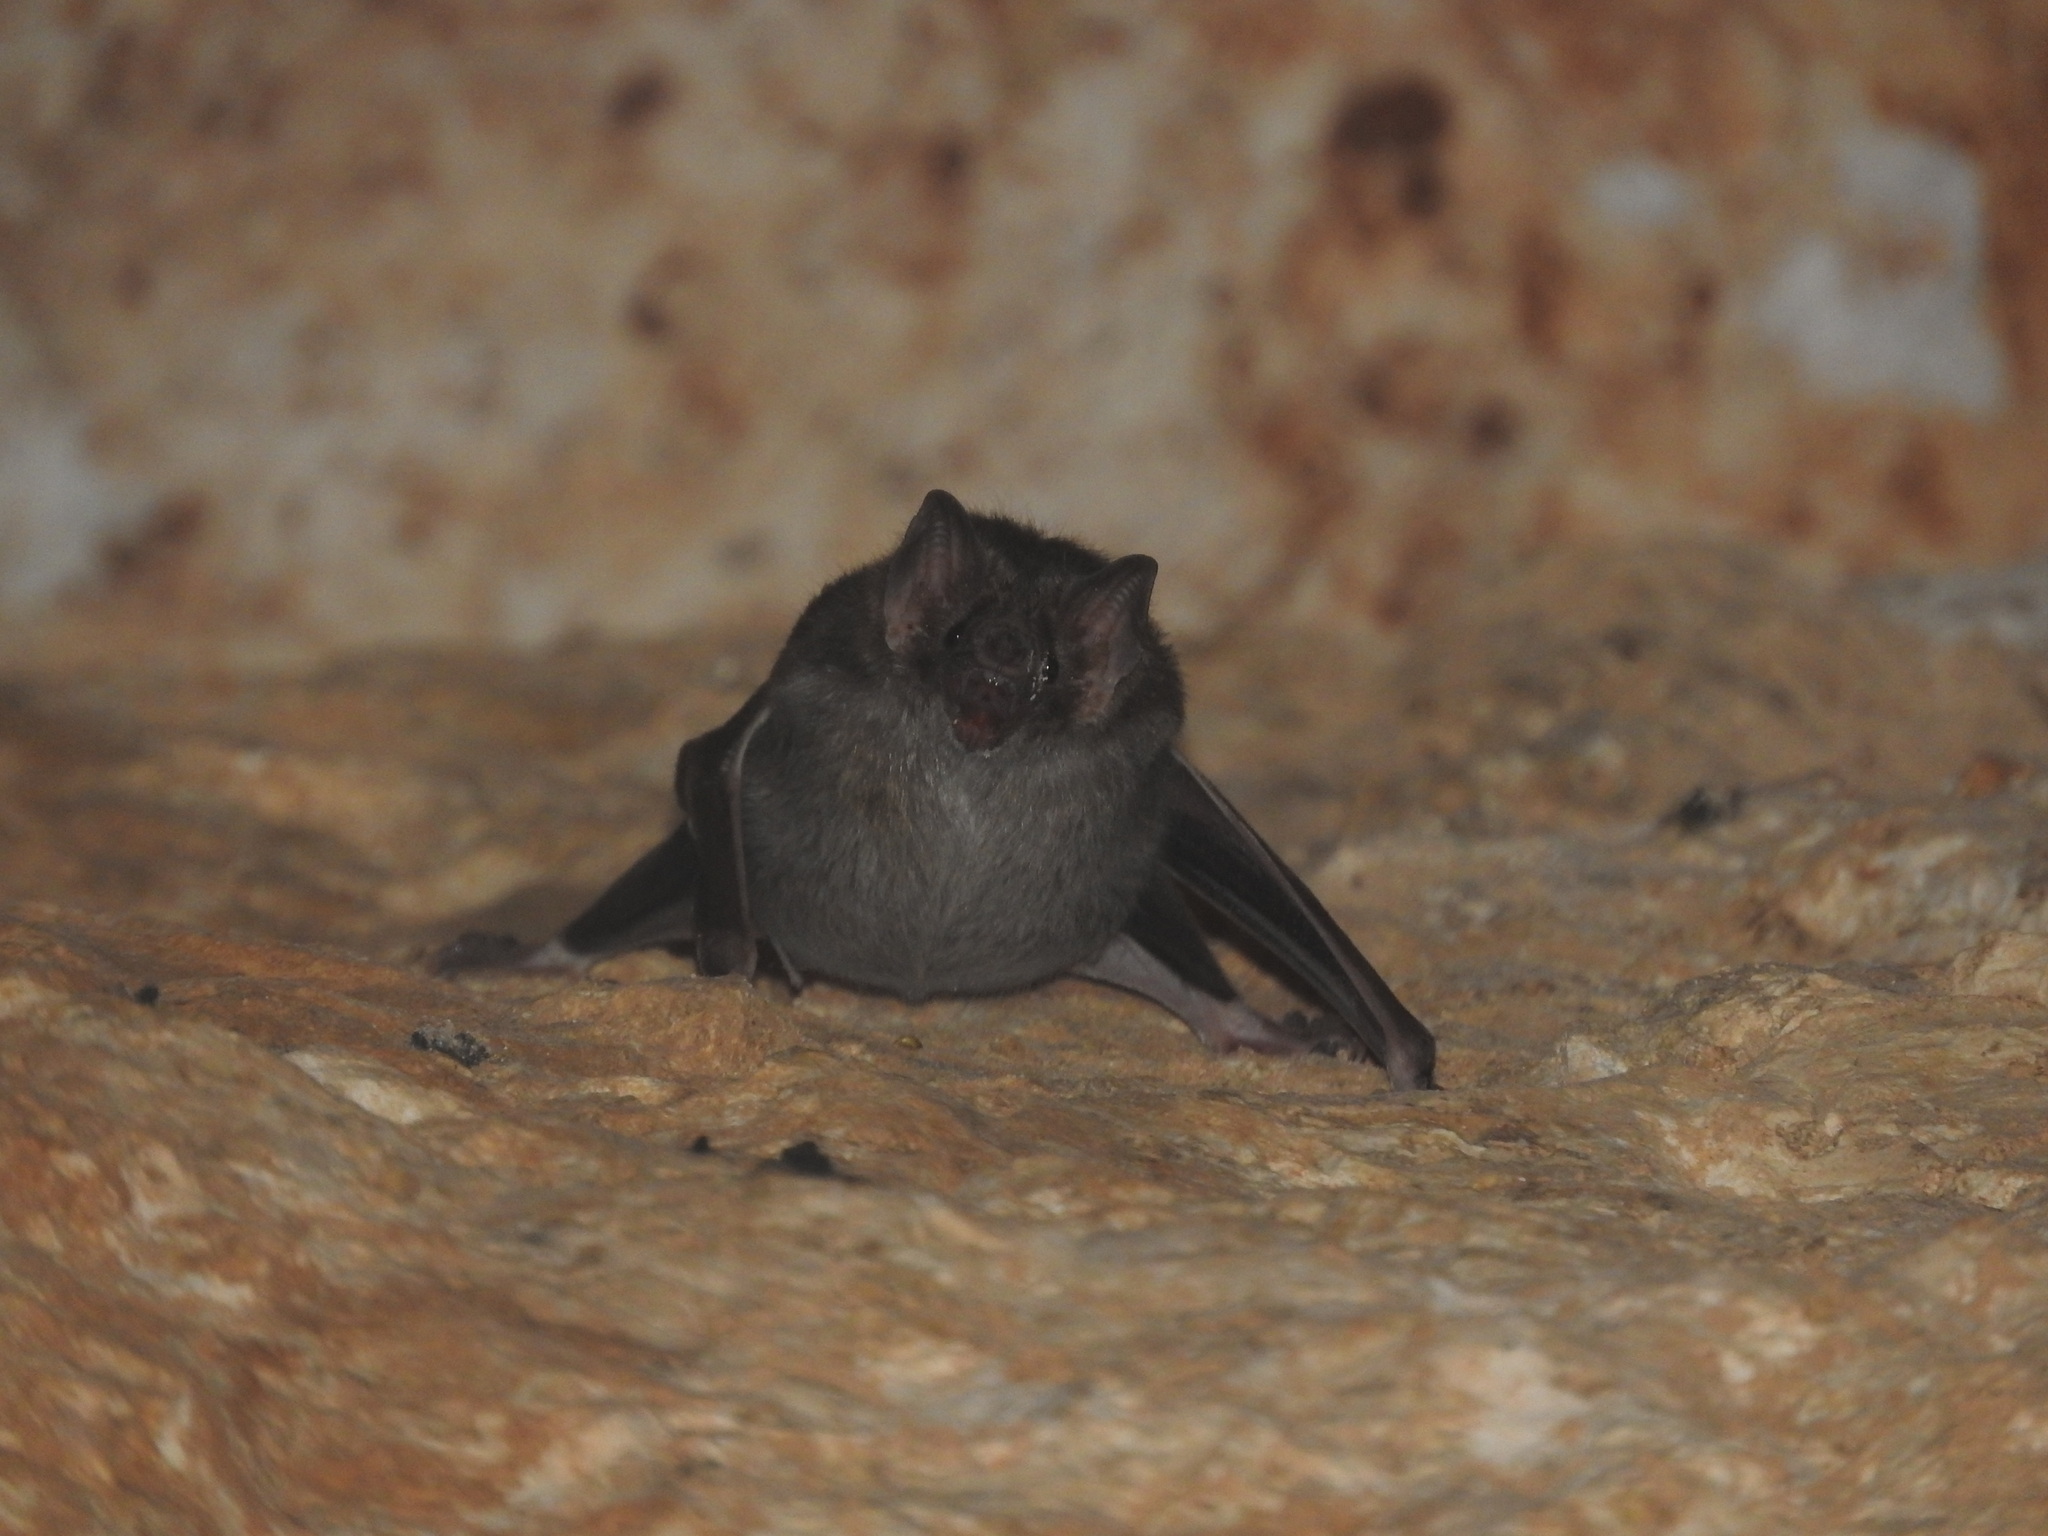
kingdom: Animalia
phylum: Chordata
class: Mammalia
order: Chiroptera
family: Phyllostomidae
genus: Desmodus
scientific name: Desmodus rotundus
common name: Common vampire bat
